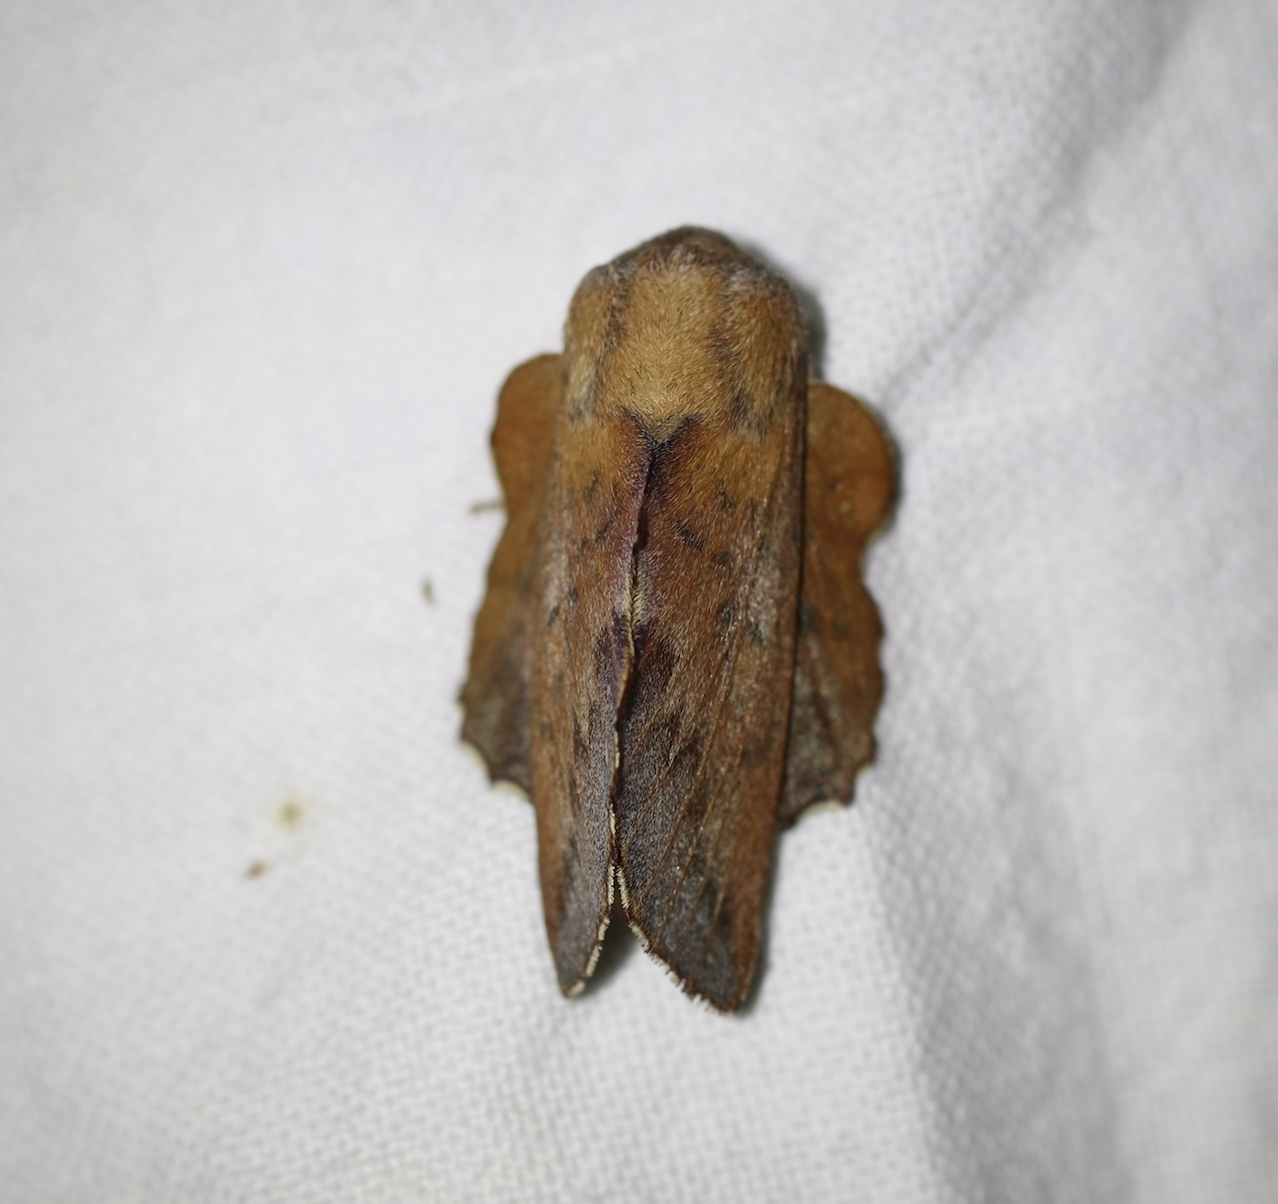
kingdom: Animalia
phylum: Arthropoda
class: Insecta
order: Lepidoptera
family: Lasiocampidae
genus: Phyllodesma
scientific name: Phyllodesma tremulifolia
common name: Aspen lappet
